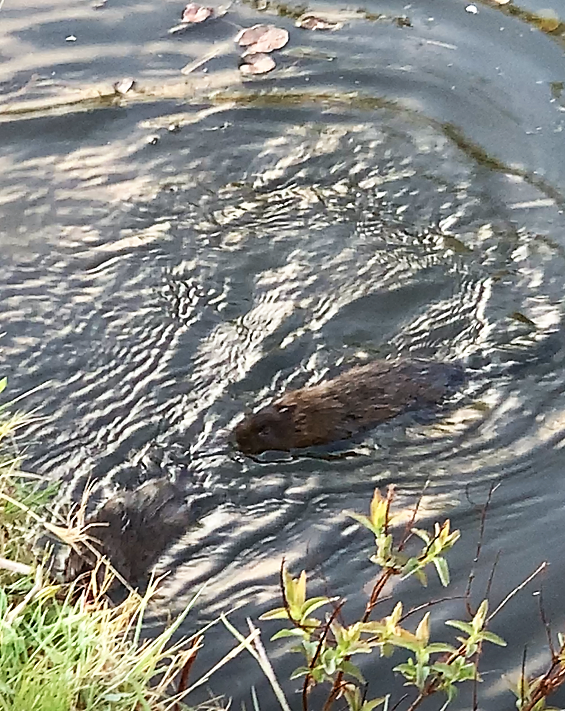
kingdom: Animalia
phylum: Chordata
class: Mammalia
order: Rodentia
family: Cricetidae
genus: Arvicola
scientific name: Arvicola amphibius
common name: European water vole
